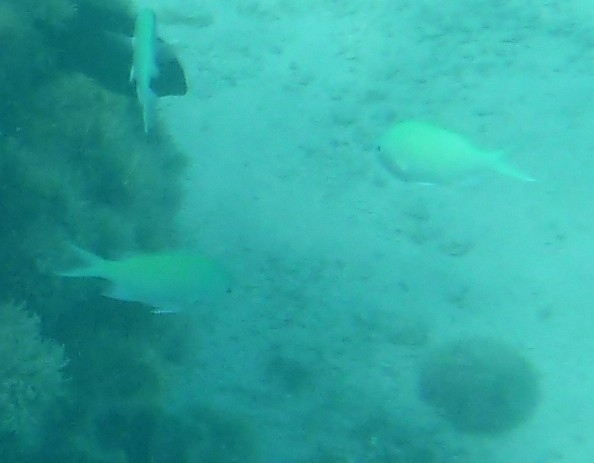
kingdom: Animalia
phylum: Chordata
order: Perciformes
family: Pomacentridae
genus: Chromis
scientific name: Chromis viridis
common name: Blue-green chromis
